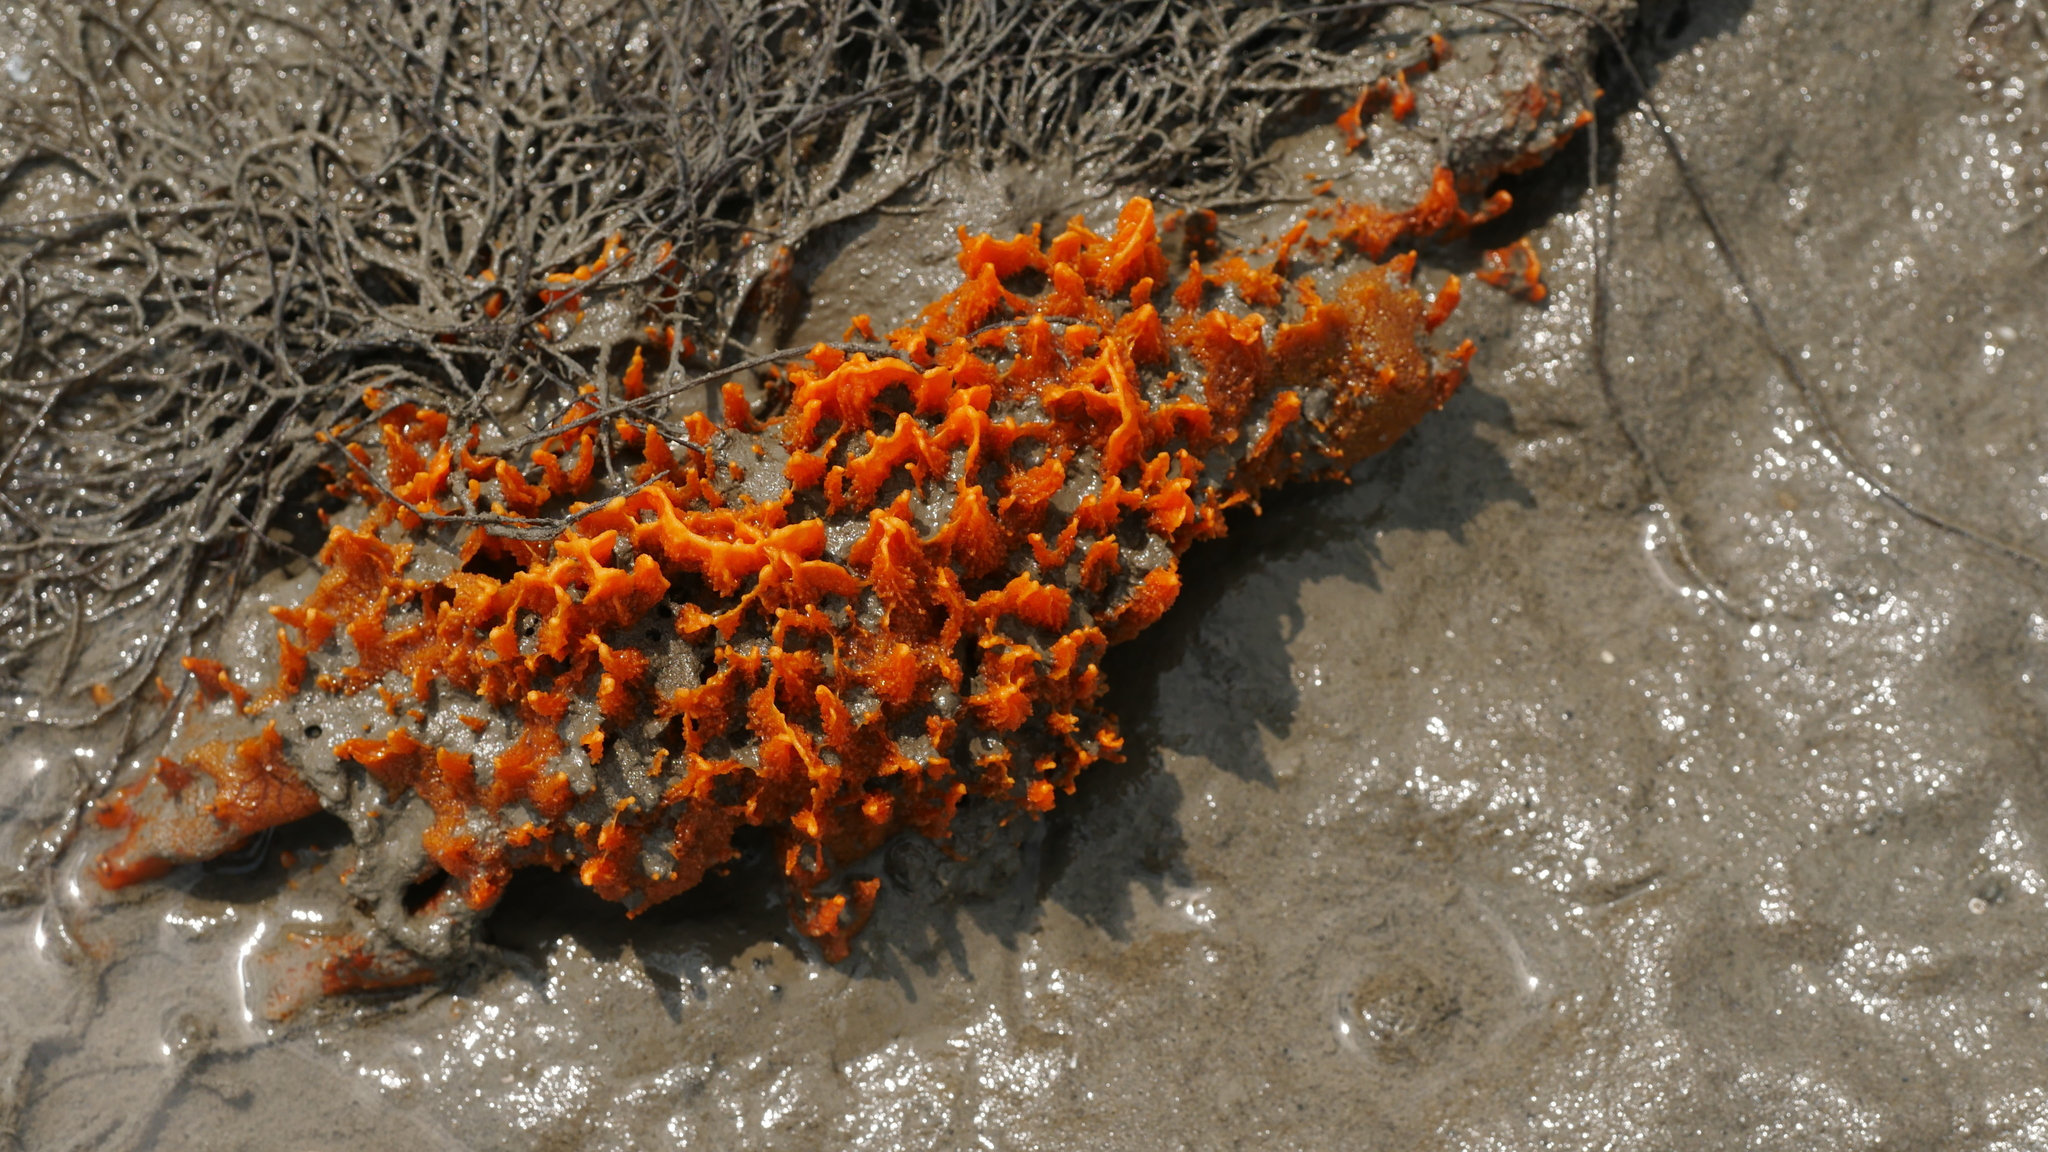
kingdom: Animalia
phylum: Porifera
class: Demospongiae
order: Suberitida
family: Halichondriidae
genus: Hymeniacidon
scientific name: Hymeniacidon heliophila
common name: Diurnal horny sponge
